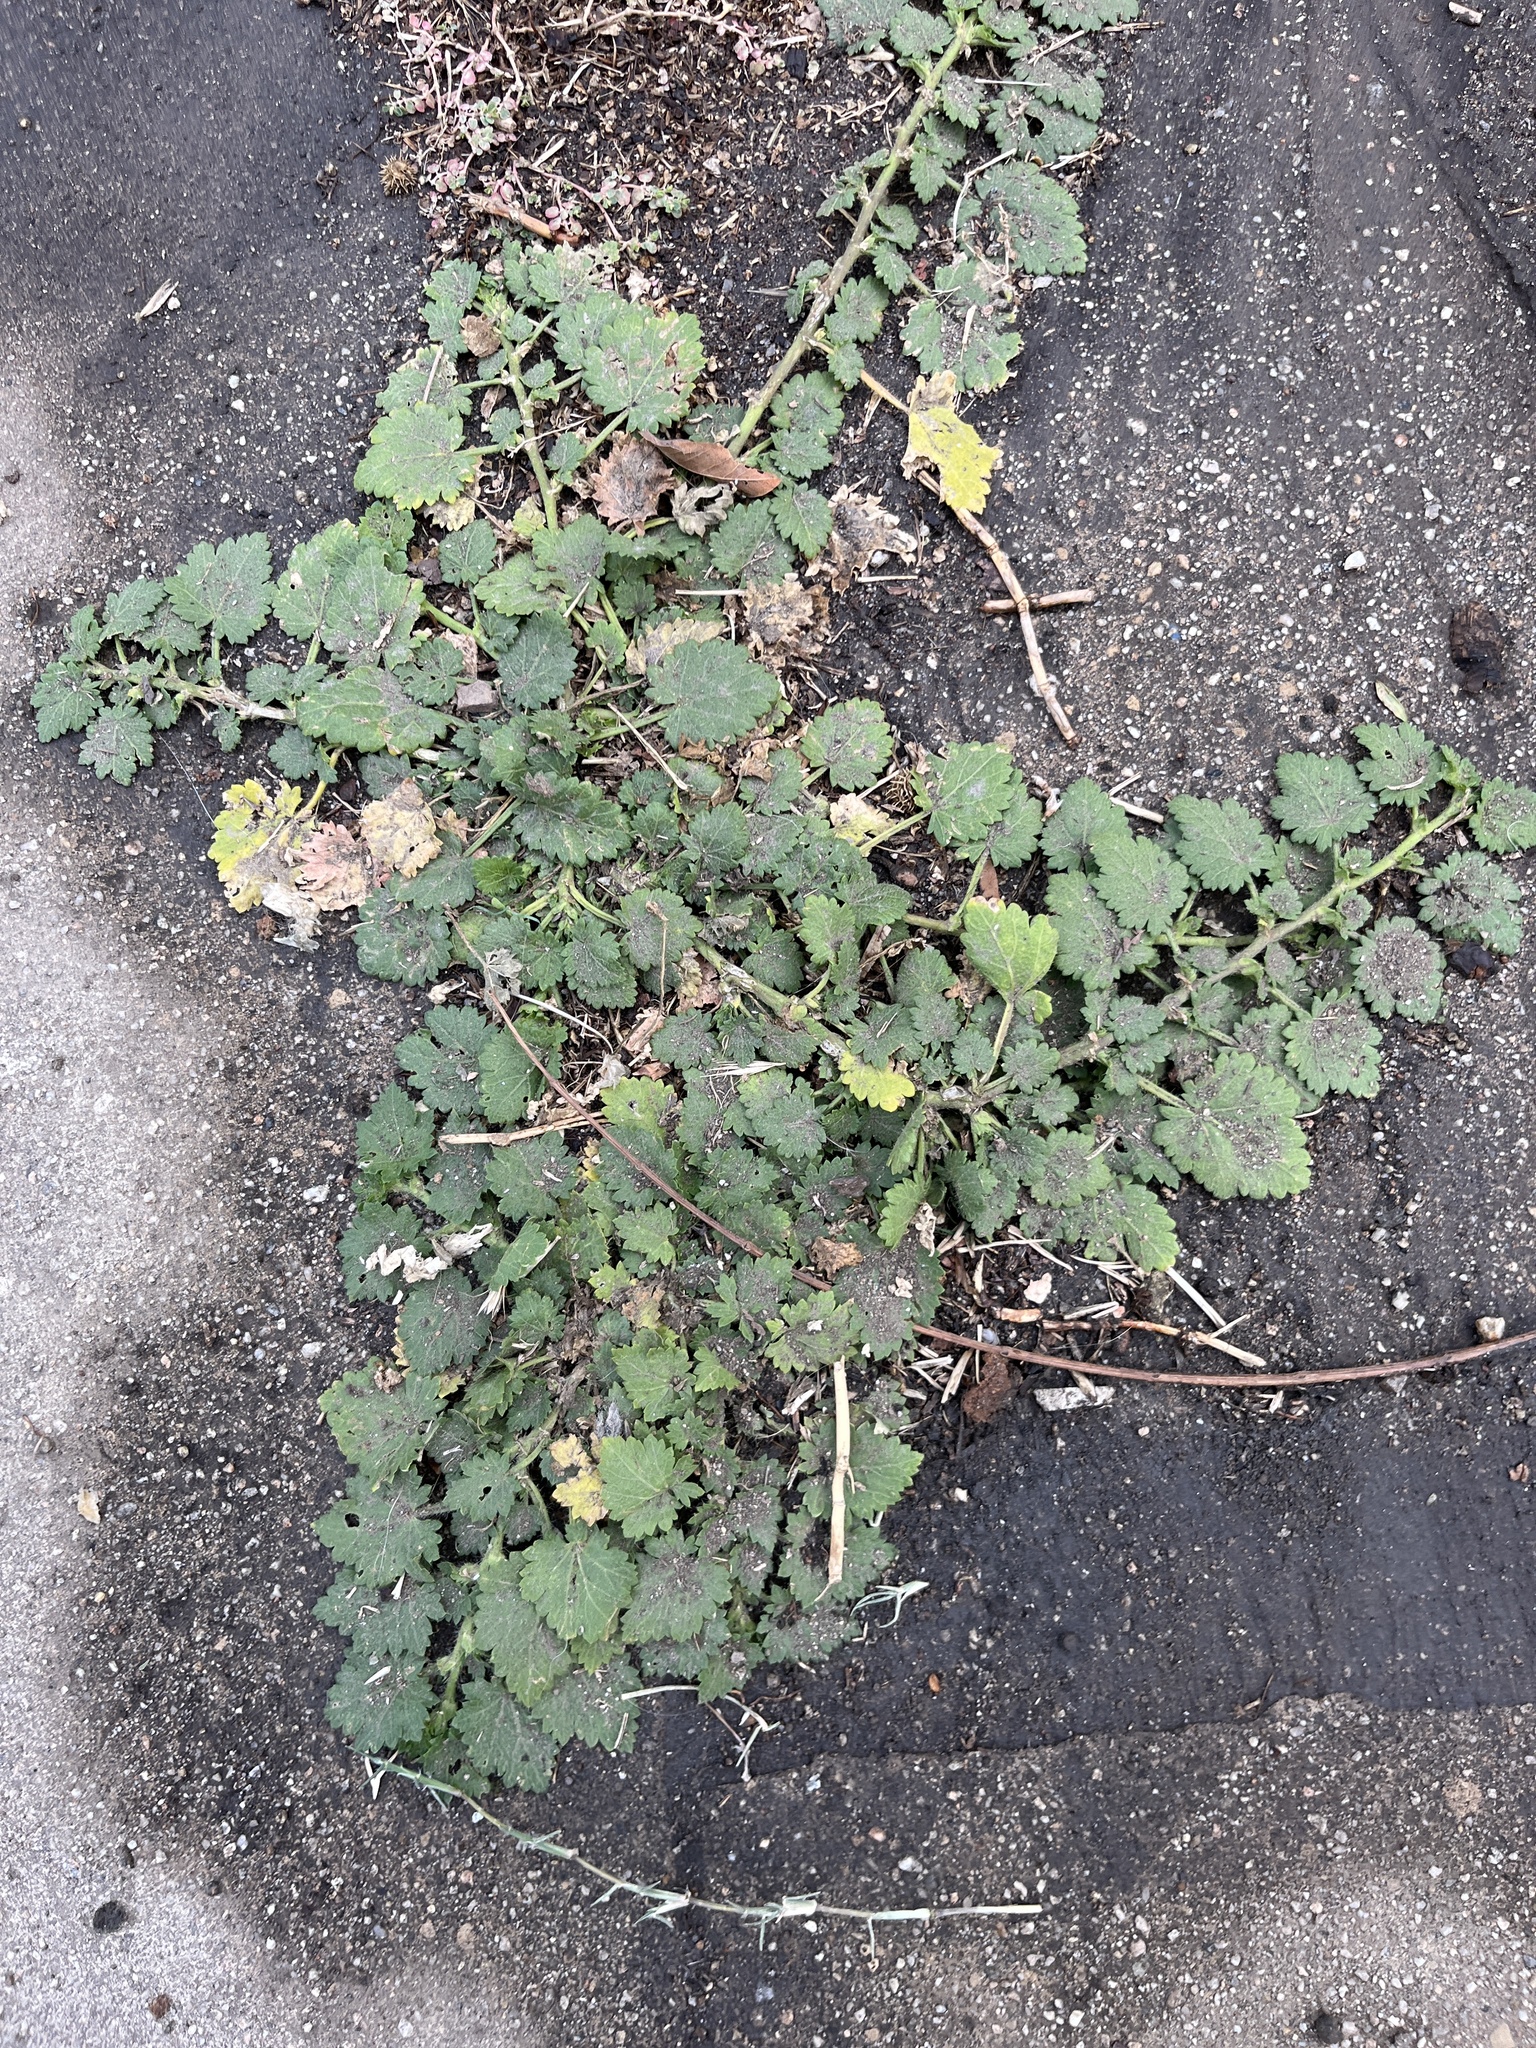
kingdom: Plantae
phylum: Tracheophyta
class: Magnoliopsida
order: Malvales
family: Malvaceae
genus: Modiola
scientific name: Modiola caroliniana
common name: Carolina bristlemallow
